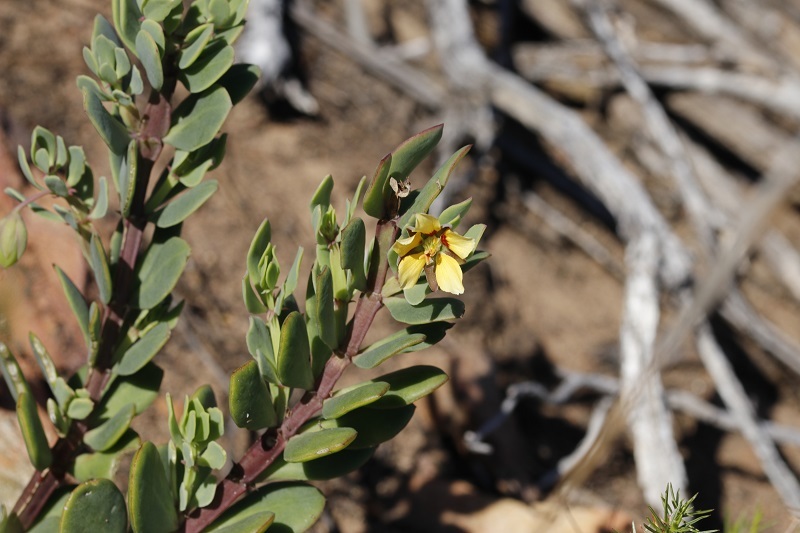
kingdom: Plantae
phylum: Tracheophyta
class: Magnoliopsida
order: Zygophyllales
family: Zygophyllaceae
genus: Roepera
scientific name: Roepera fulva
